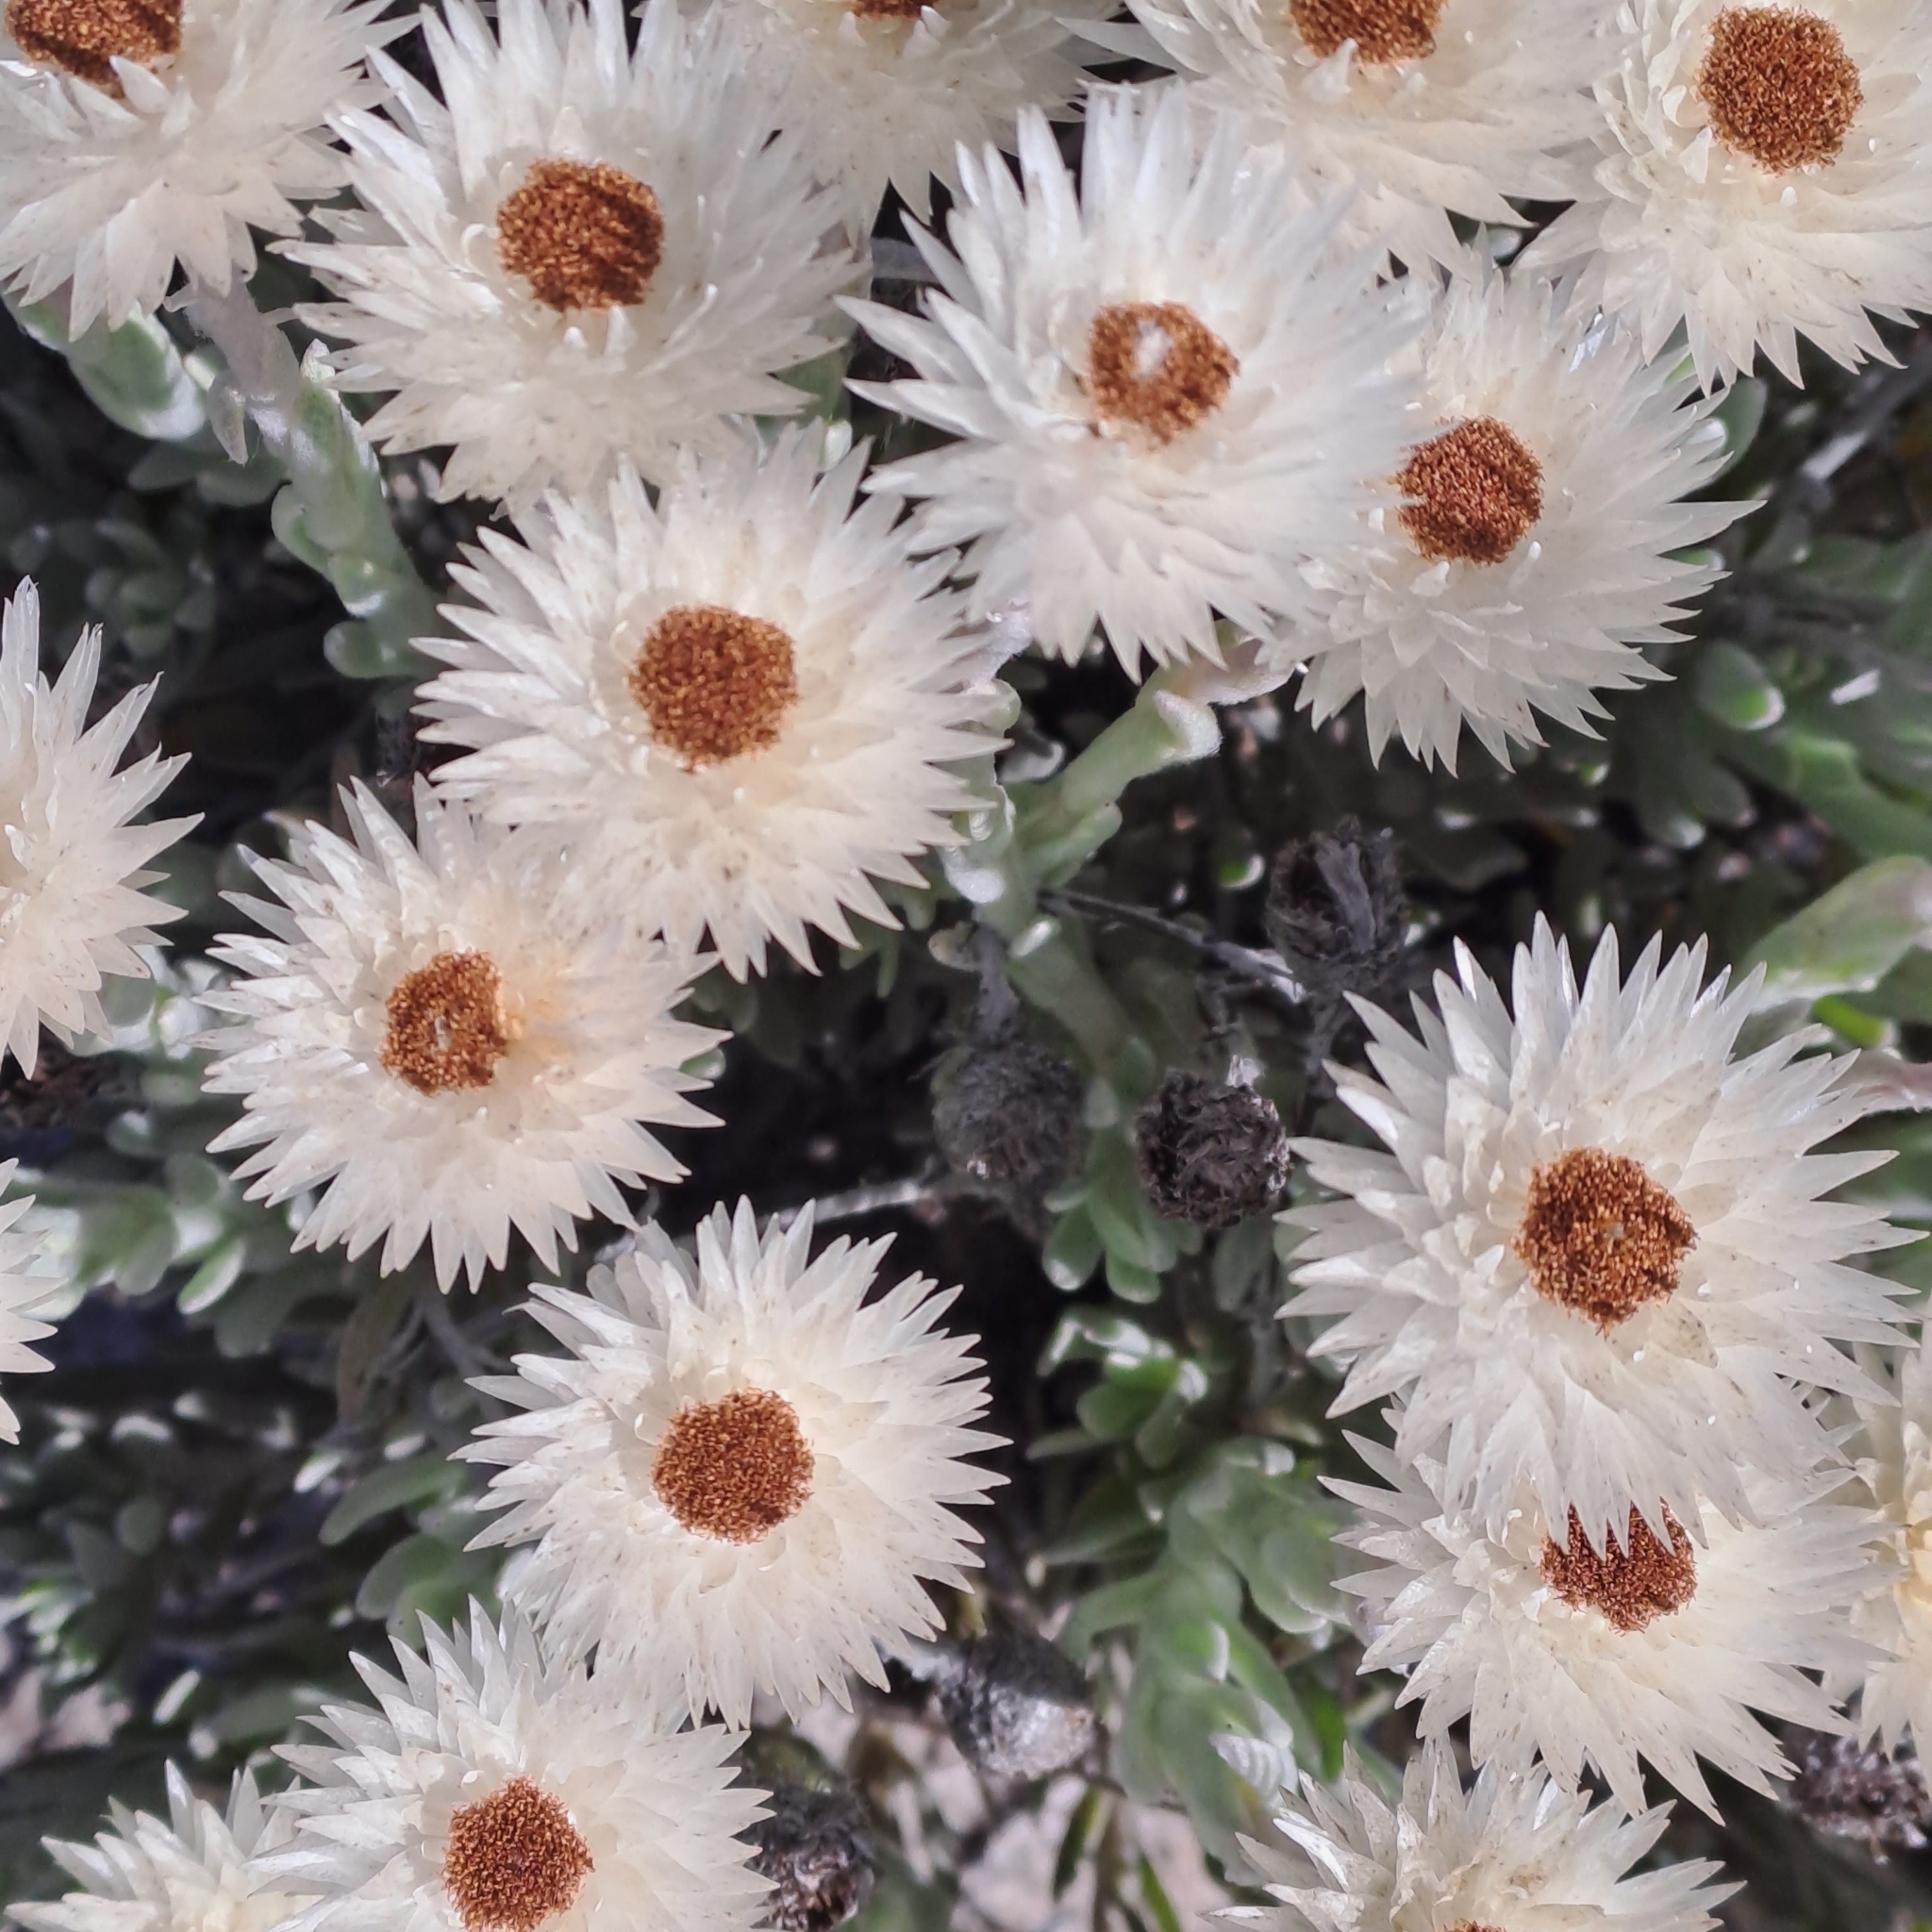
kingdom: Plantae
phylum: Tracheophyta
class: Magnoliopsida
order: Asterales
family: Asteraceae
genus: Syncarpha
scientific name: Syncarpha vestita
